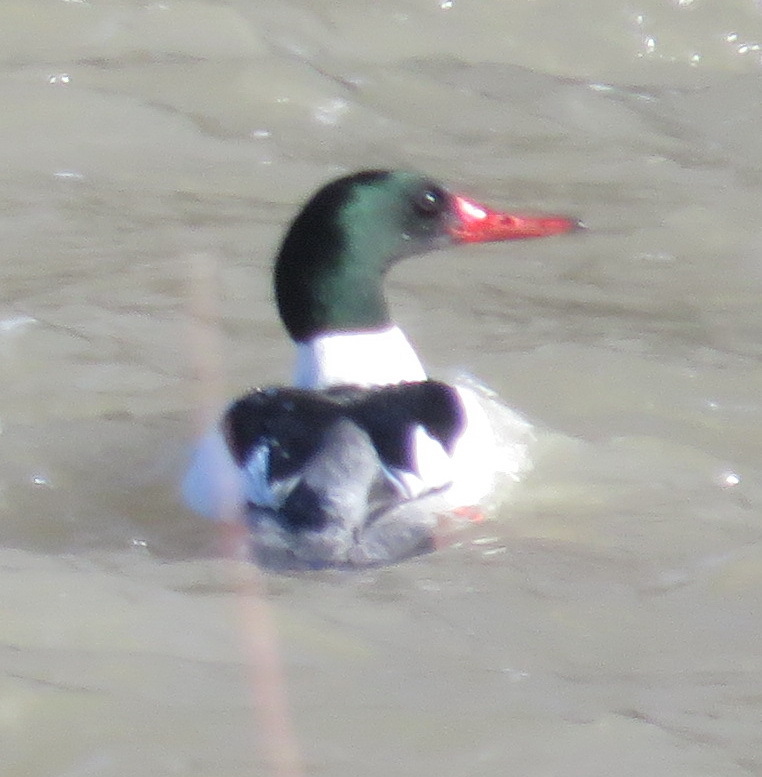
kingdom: Animalia
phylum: Chordata
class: Aves
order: Anseriformes
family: Anatidae
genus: Mergus
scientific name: Mergus merganser
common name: Common merganser
